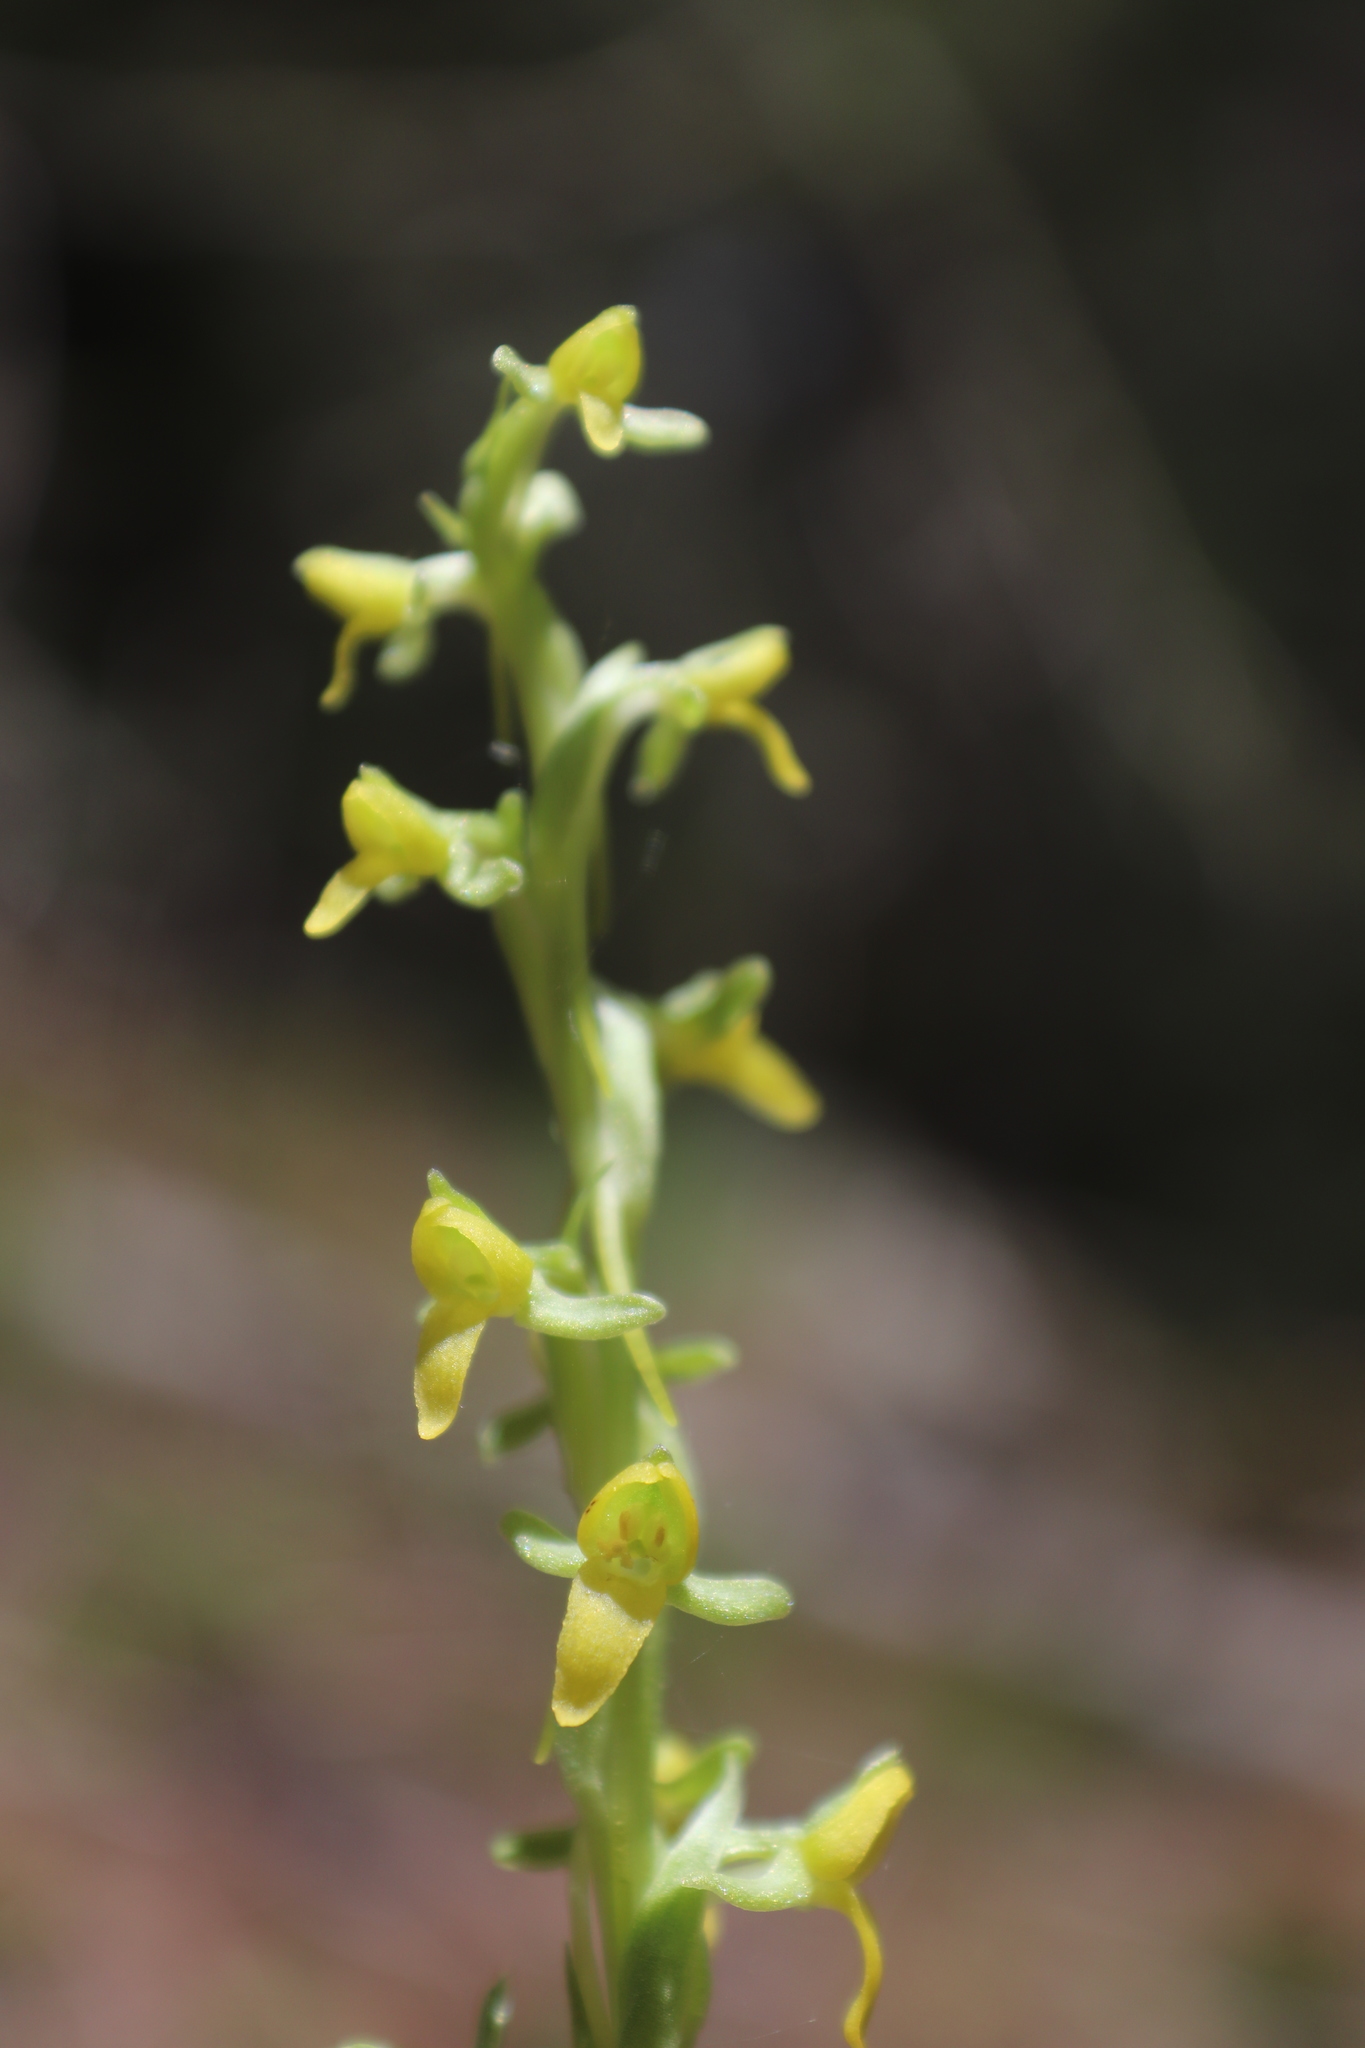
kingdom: Plantae
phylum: Tracheophyta
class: Liliopsida
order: Asparagales
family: Orchidaceae
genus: Coenoemersa
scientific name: Coenoemersa limosa
